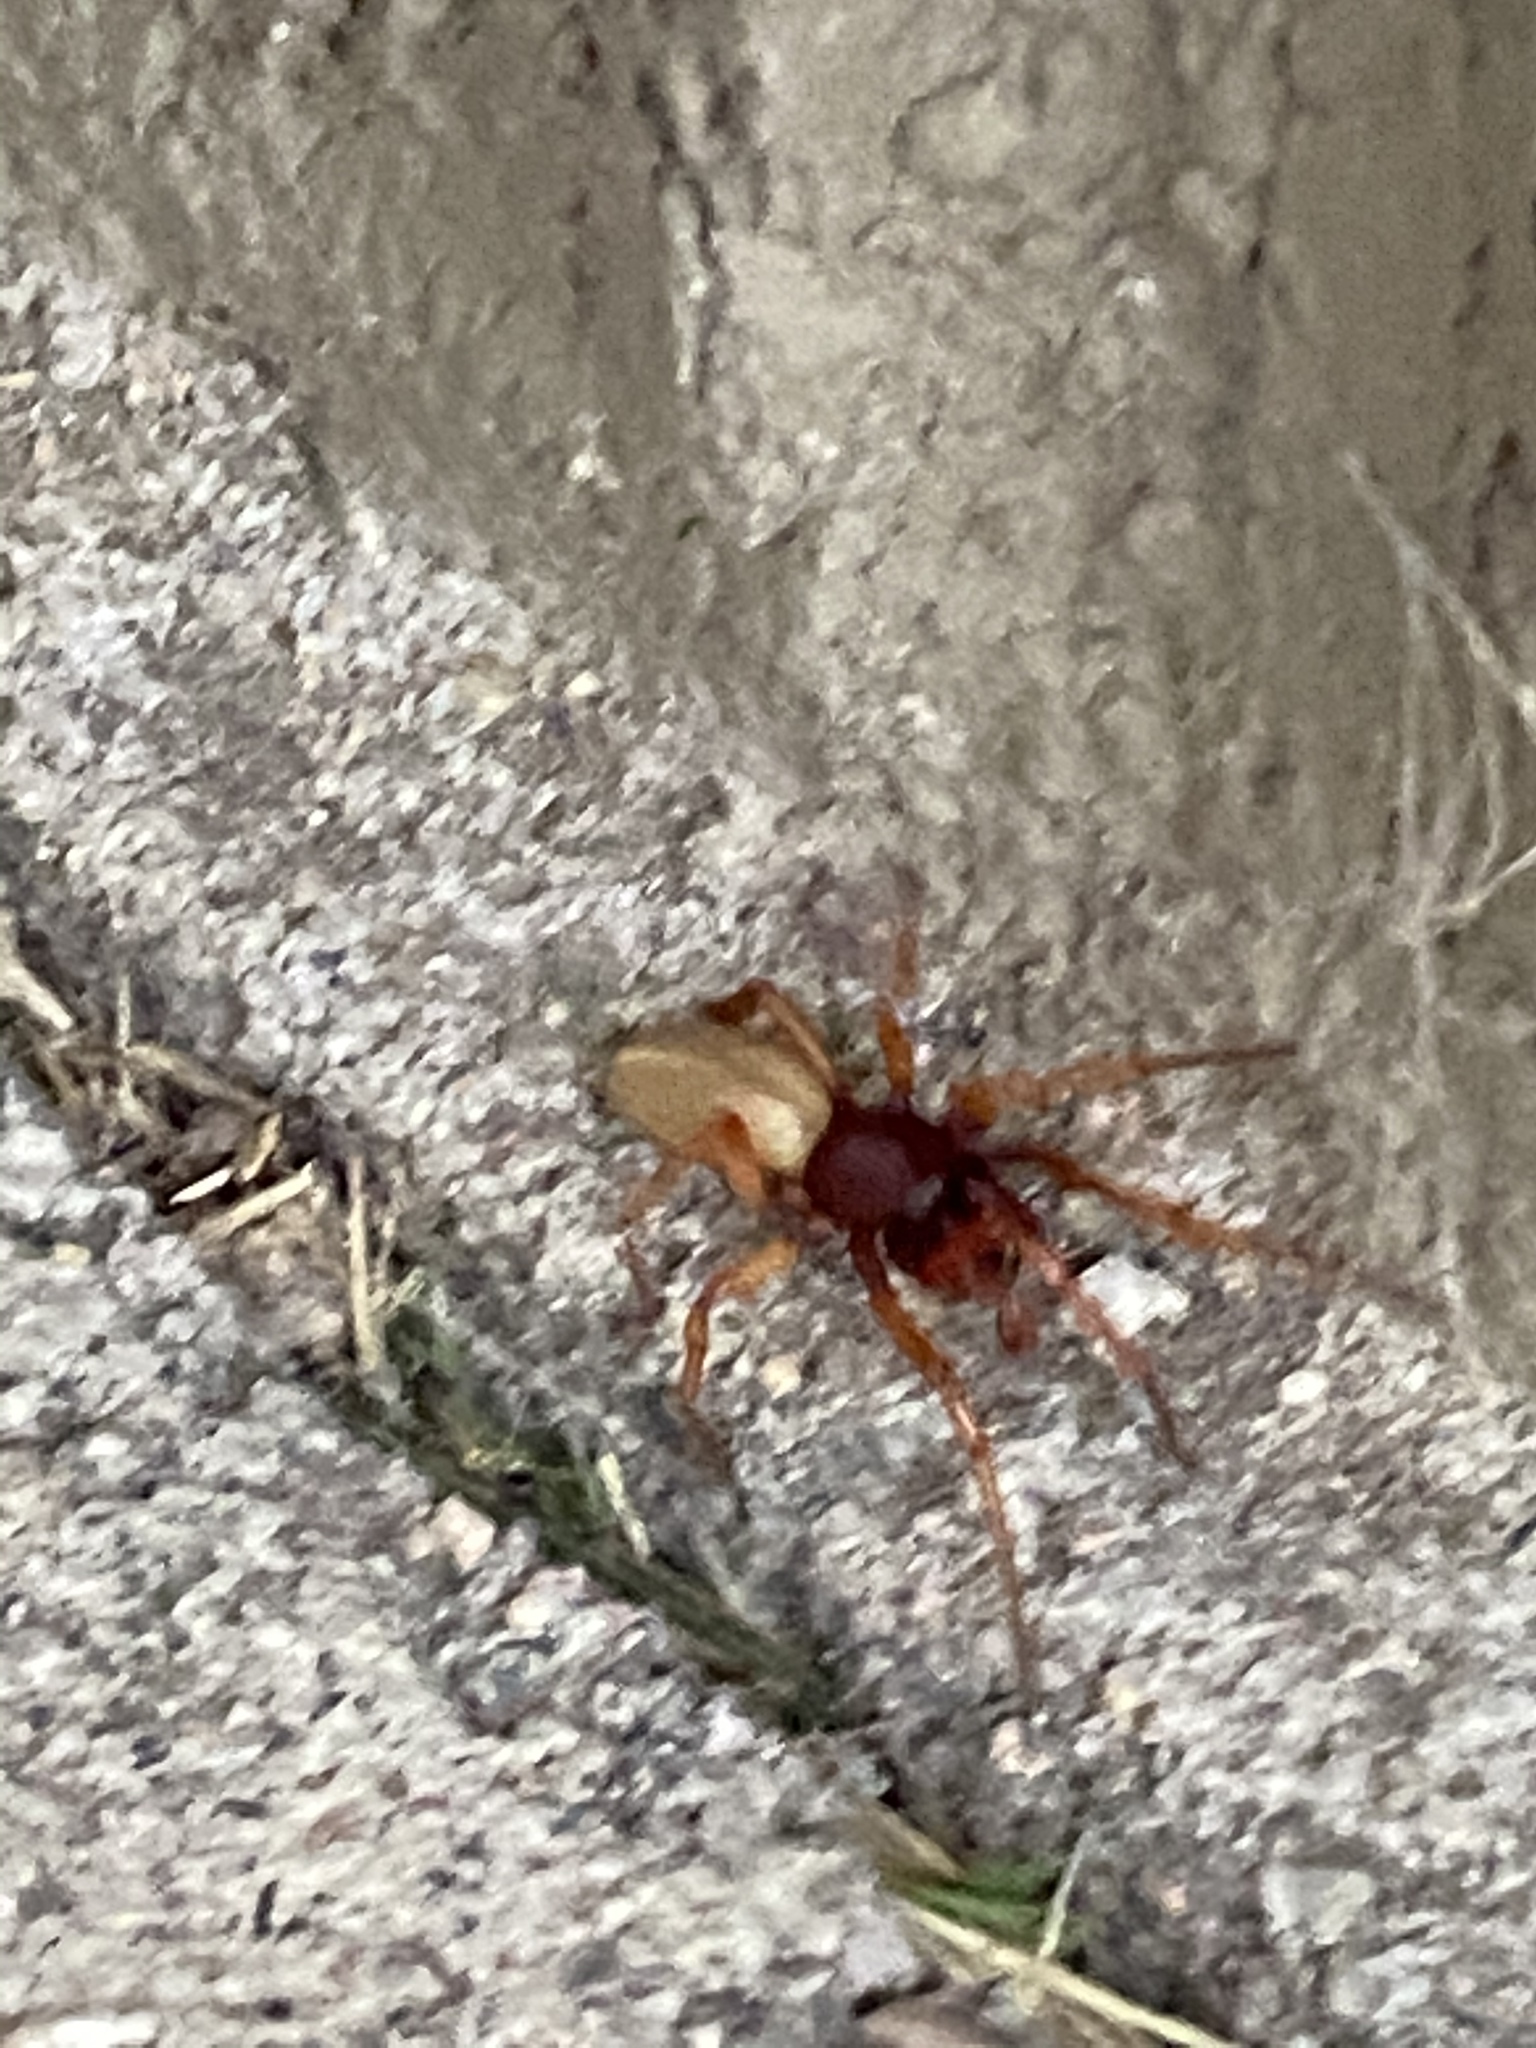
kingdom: Animalia
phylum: Arthropoda
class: Arachnida
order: Araneae
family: Dysderidae
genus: Dysdera
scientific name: Dysdera crocata
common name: Woodlouse spider
